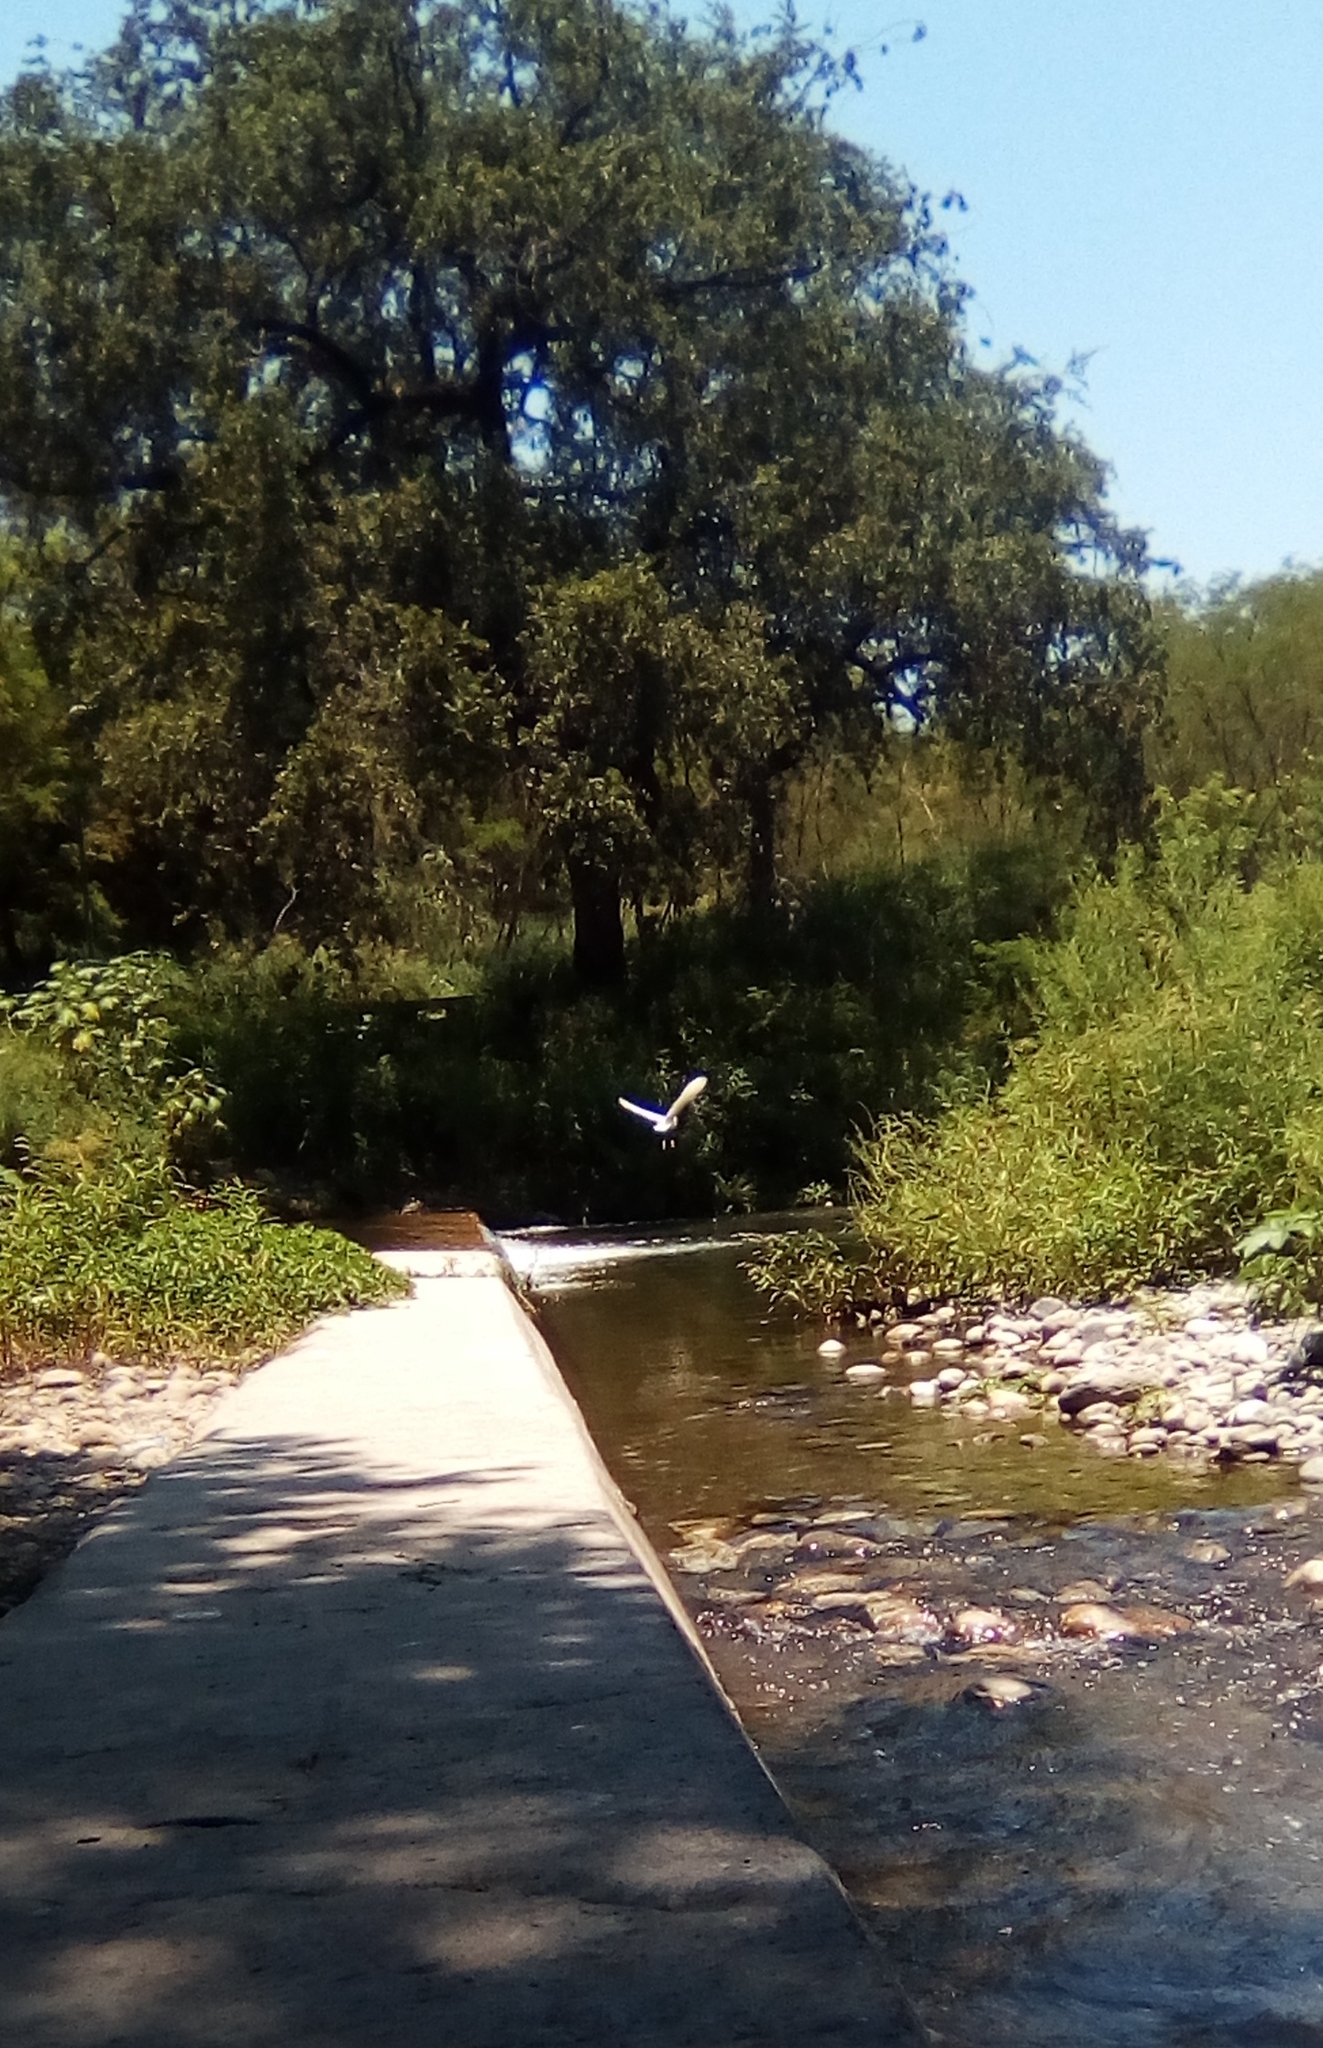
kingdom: Animalia
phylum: Chordata
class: Aves
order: Pelecaniformes
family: Ardeidae
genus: Egretta
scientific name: Egretta thula
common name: Snowy egret
